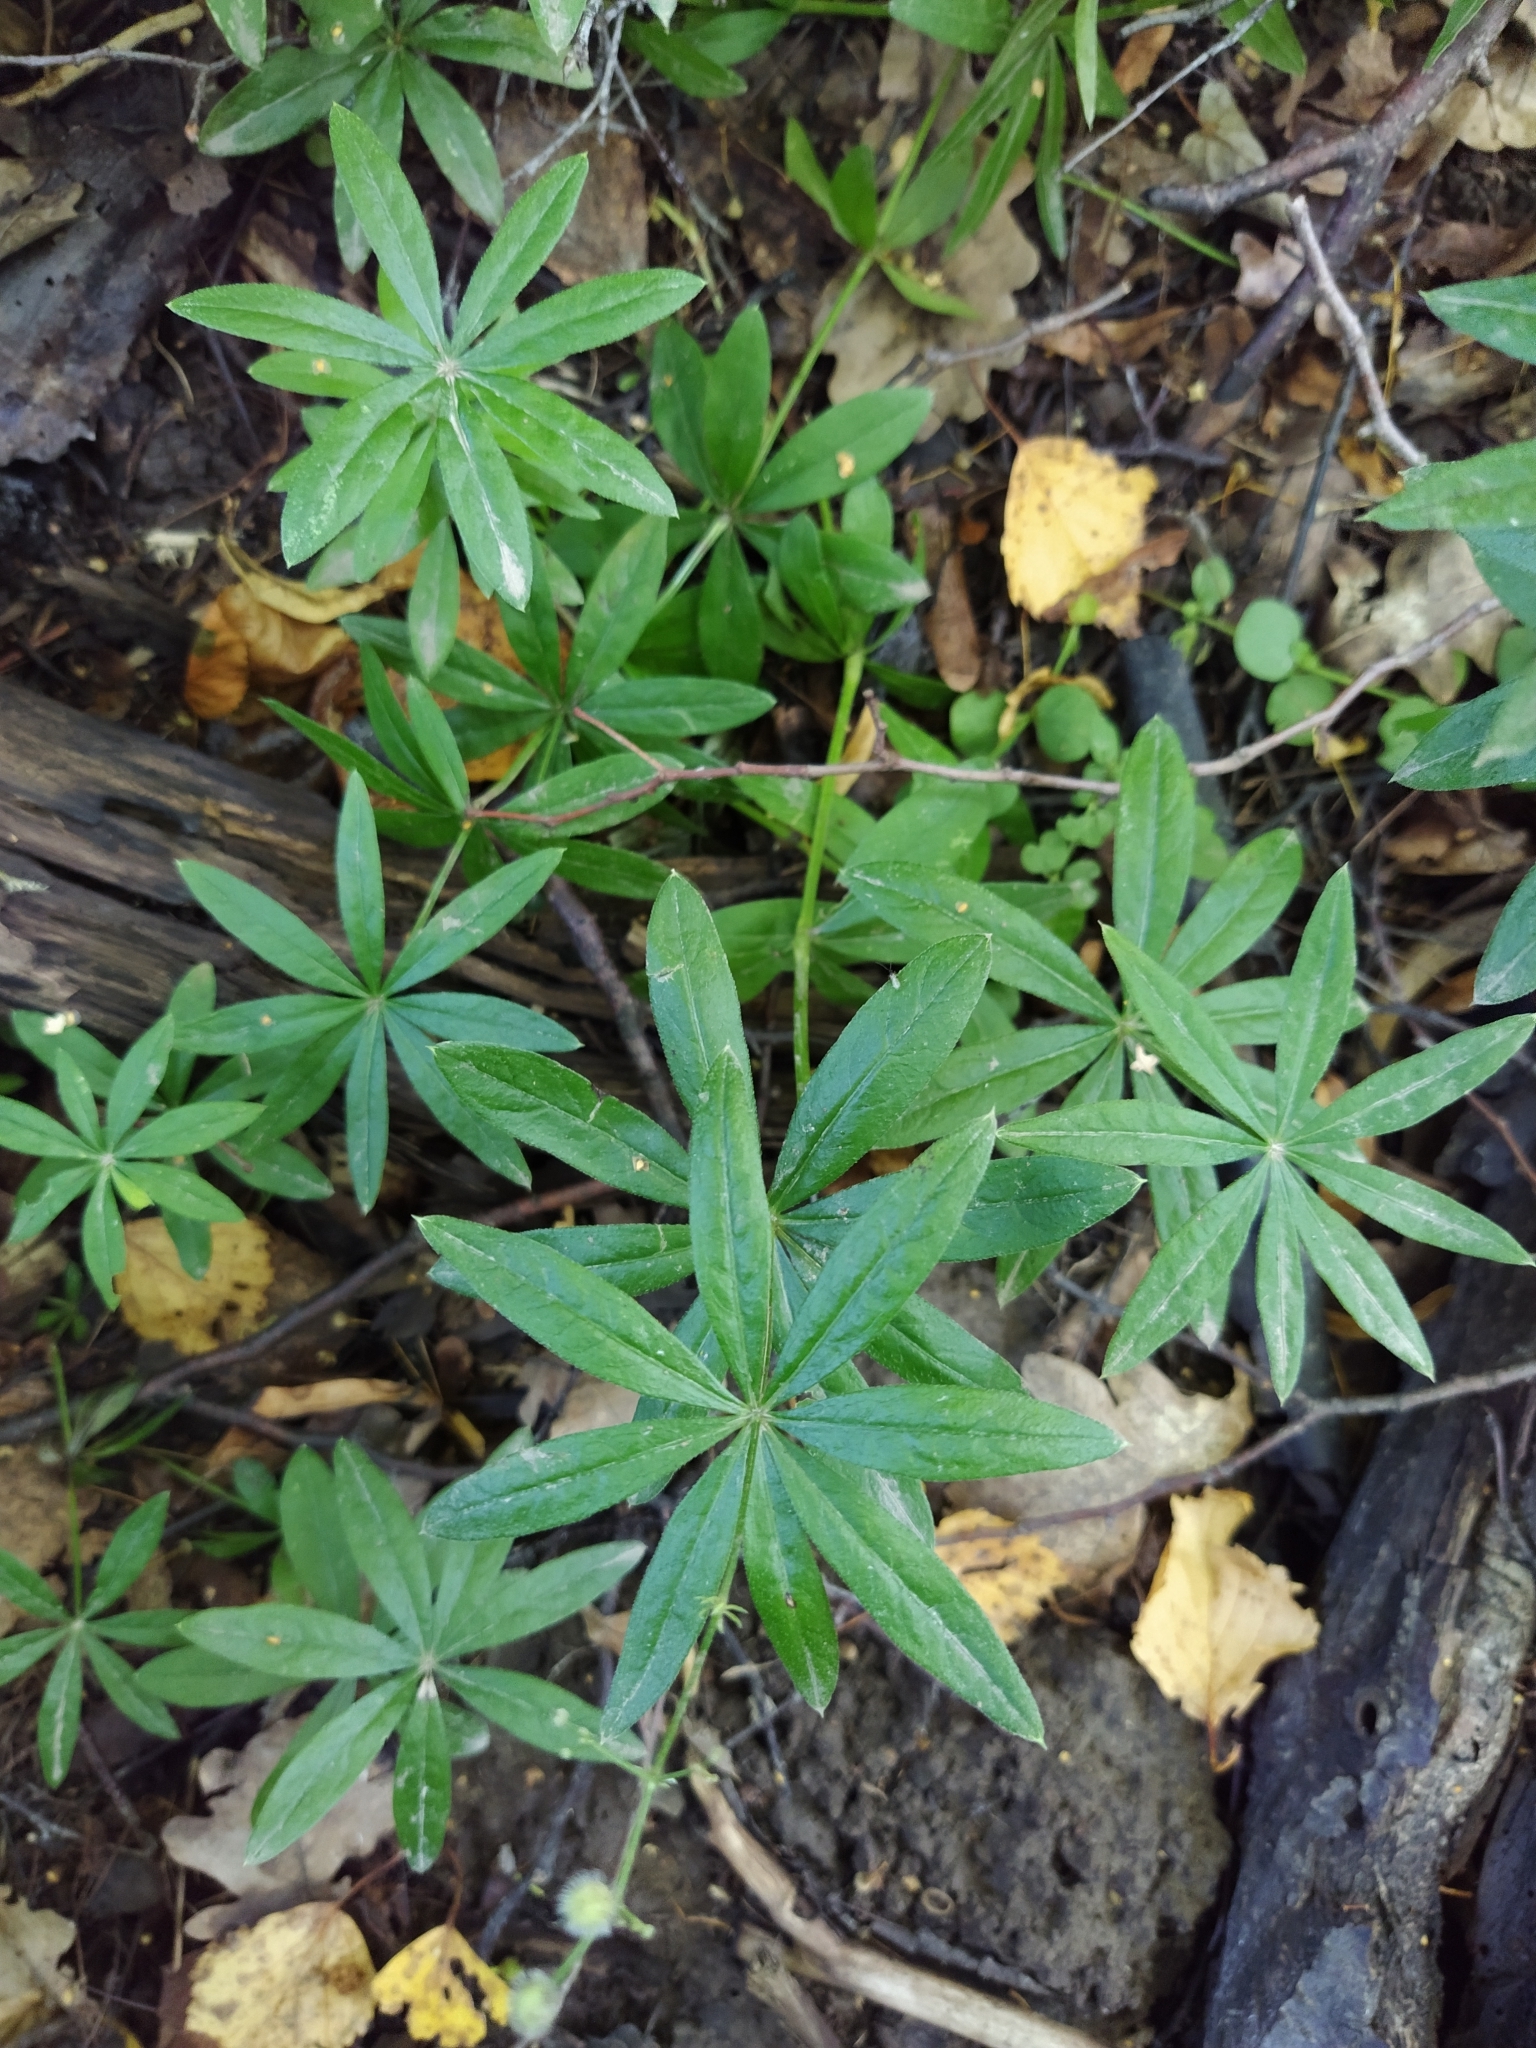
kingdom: Plantae
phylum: Tracheophyta
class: Magnoliopsida
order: Gentianales
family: Rubiaceae
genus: Galium
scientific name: Galium odoratum
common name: Sweet woodruff
